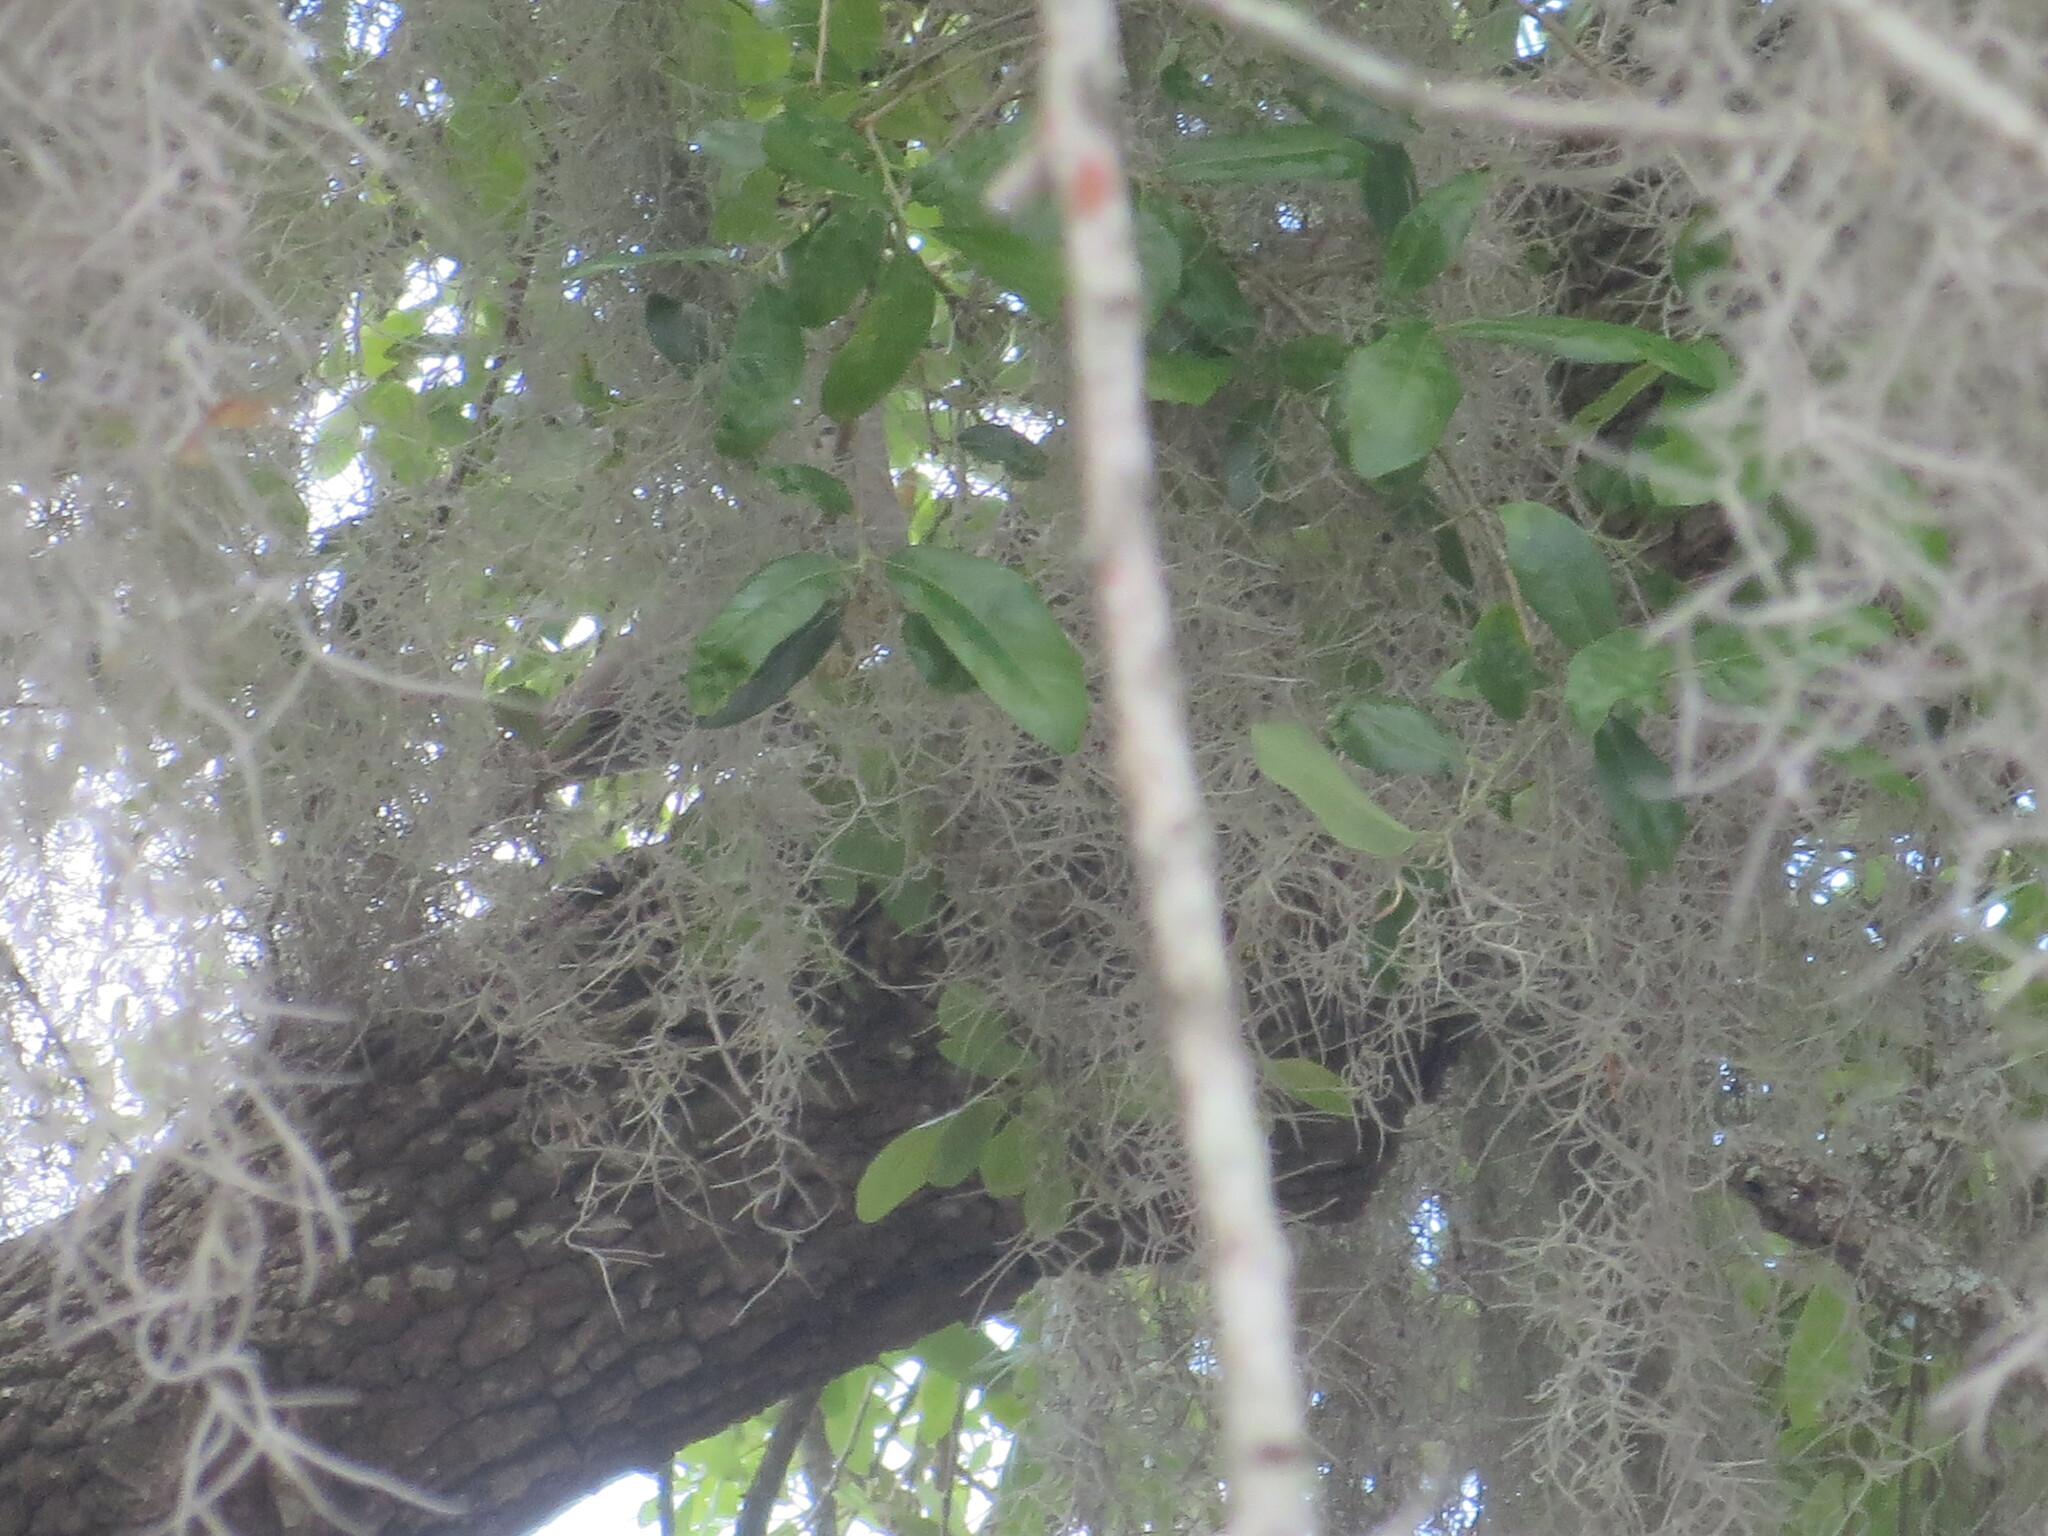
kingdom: Plantae
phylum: Tracheophyta
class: Liliopsida
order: Poales
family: Bromeliaceae
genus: Tillandsia
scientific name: Tillandsia usneoides
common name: Spanish moss
